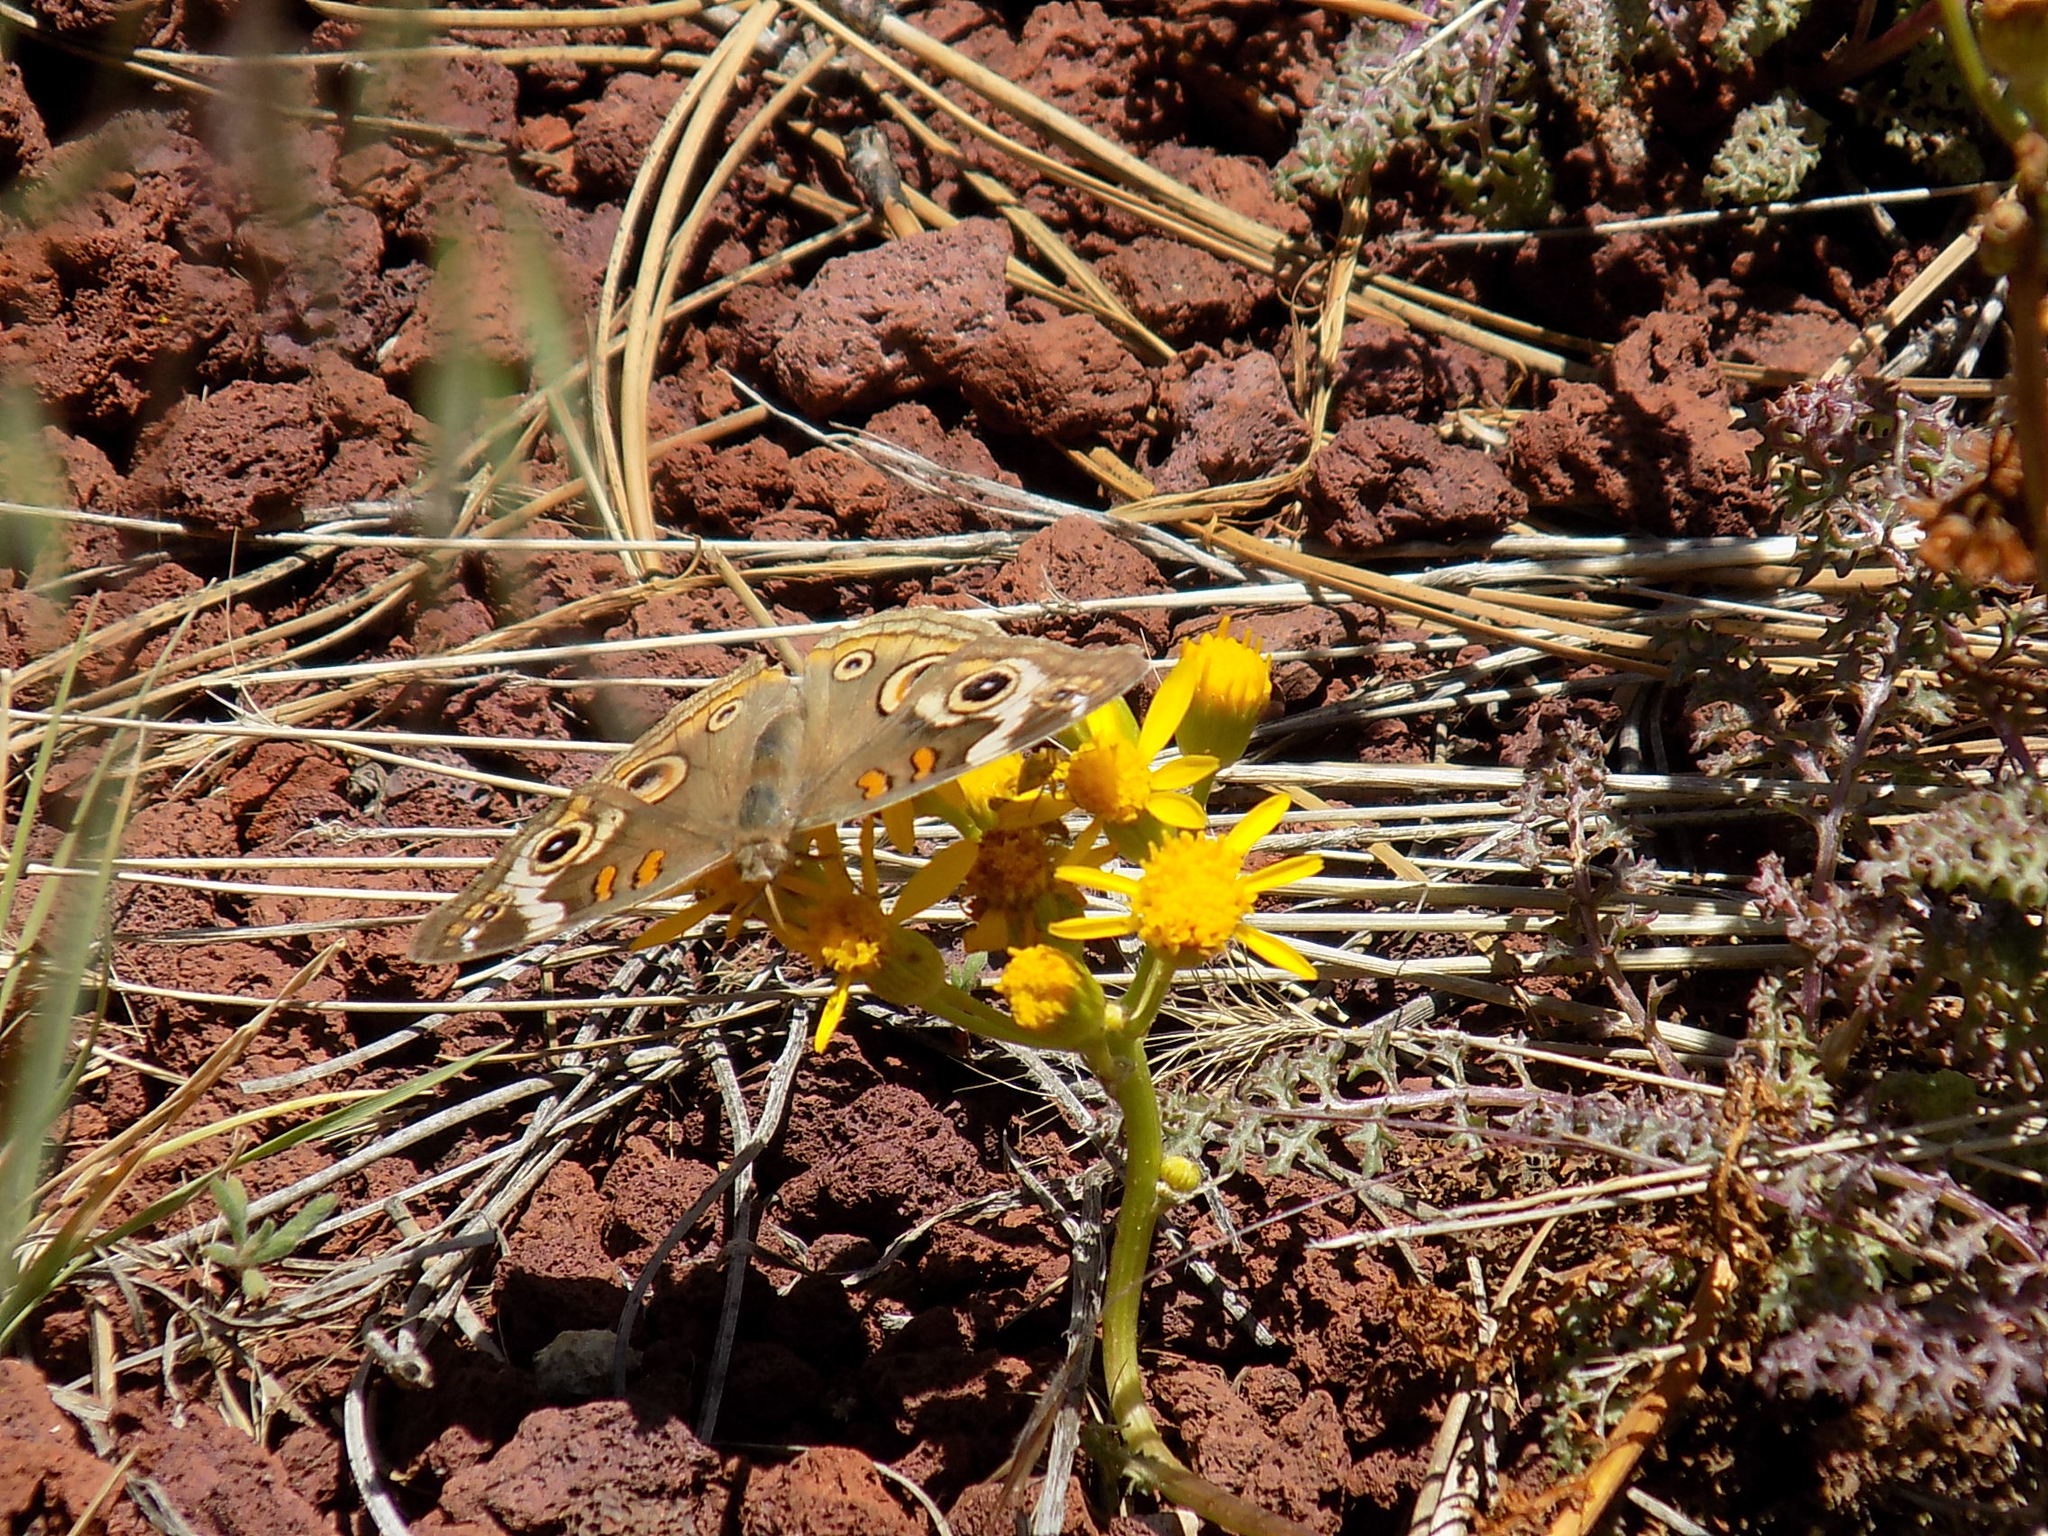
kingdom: Animalia
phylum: Arthropoda
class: Insecta
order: Lepidoptera
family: Nymphalidae
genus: Junonia
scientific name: Junonia grisea
